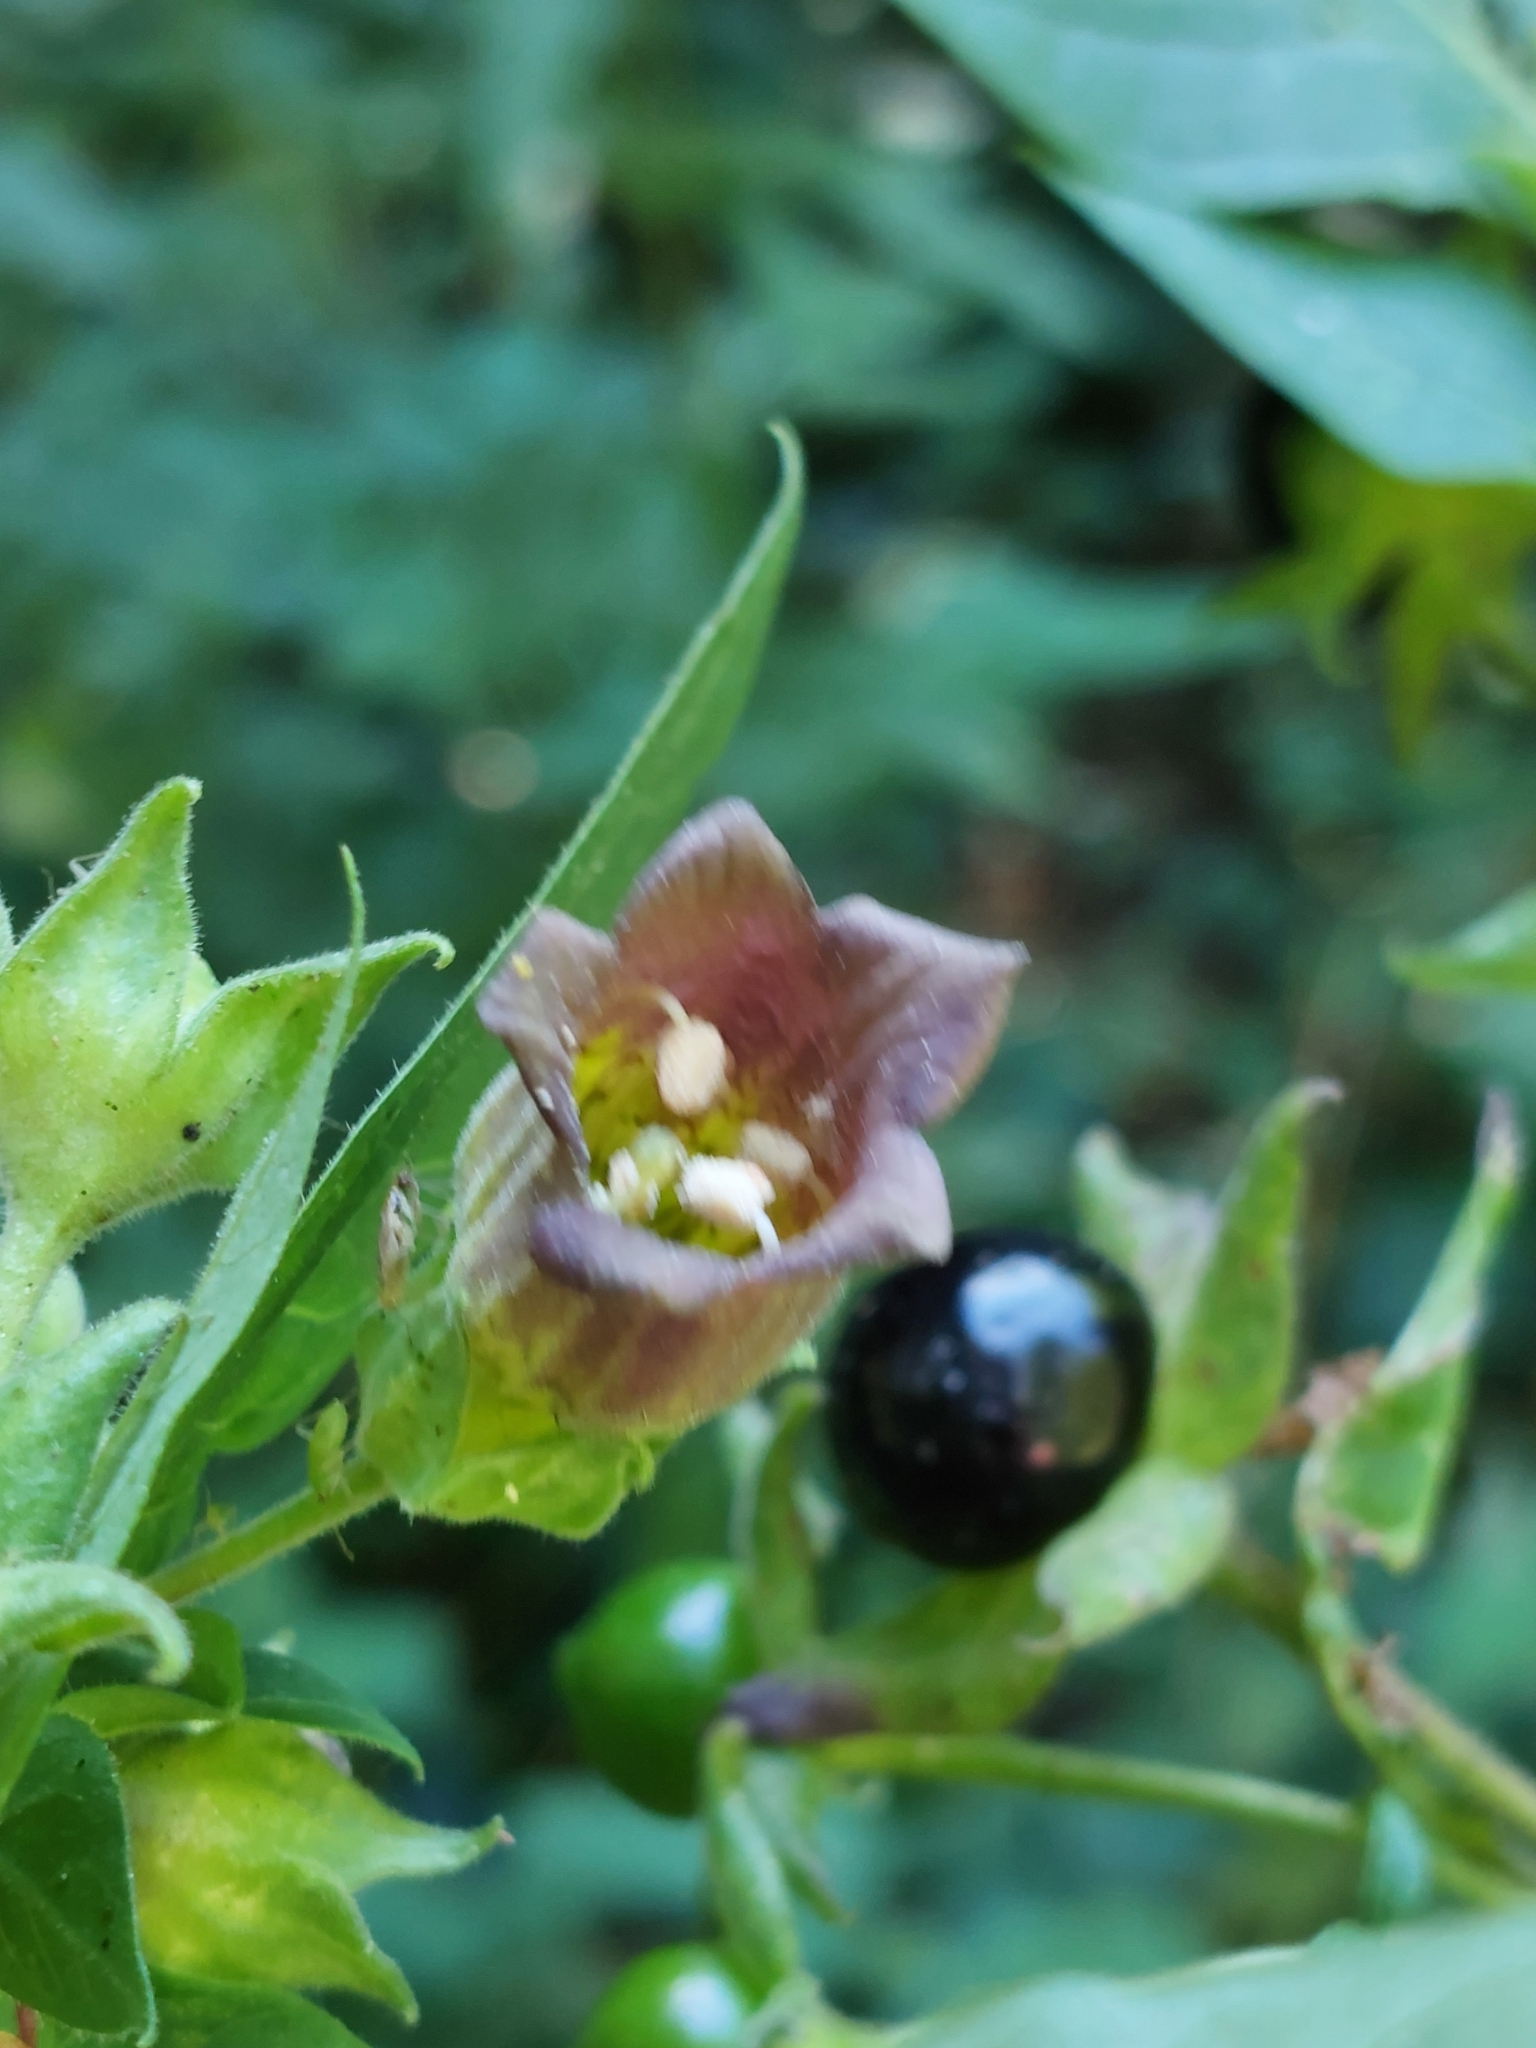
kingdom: Plantae
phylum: Tracheophyta
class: Magnoliopsida
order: Solanales
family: Solanaceae
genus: Atropa
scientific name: Atropa belladonna
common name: Deadly nightshade
